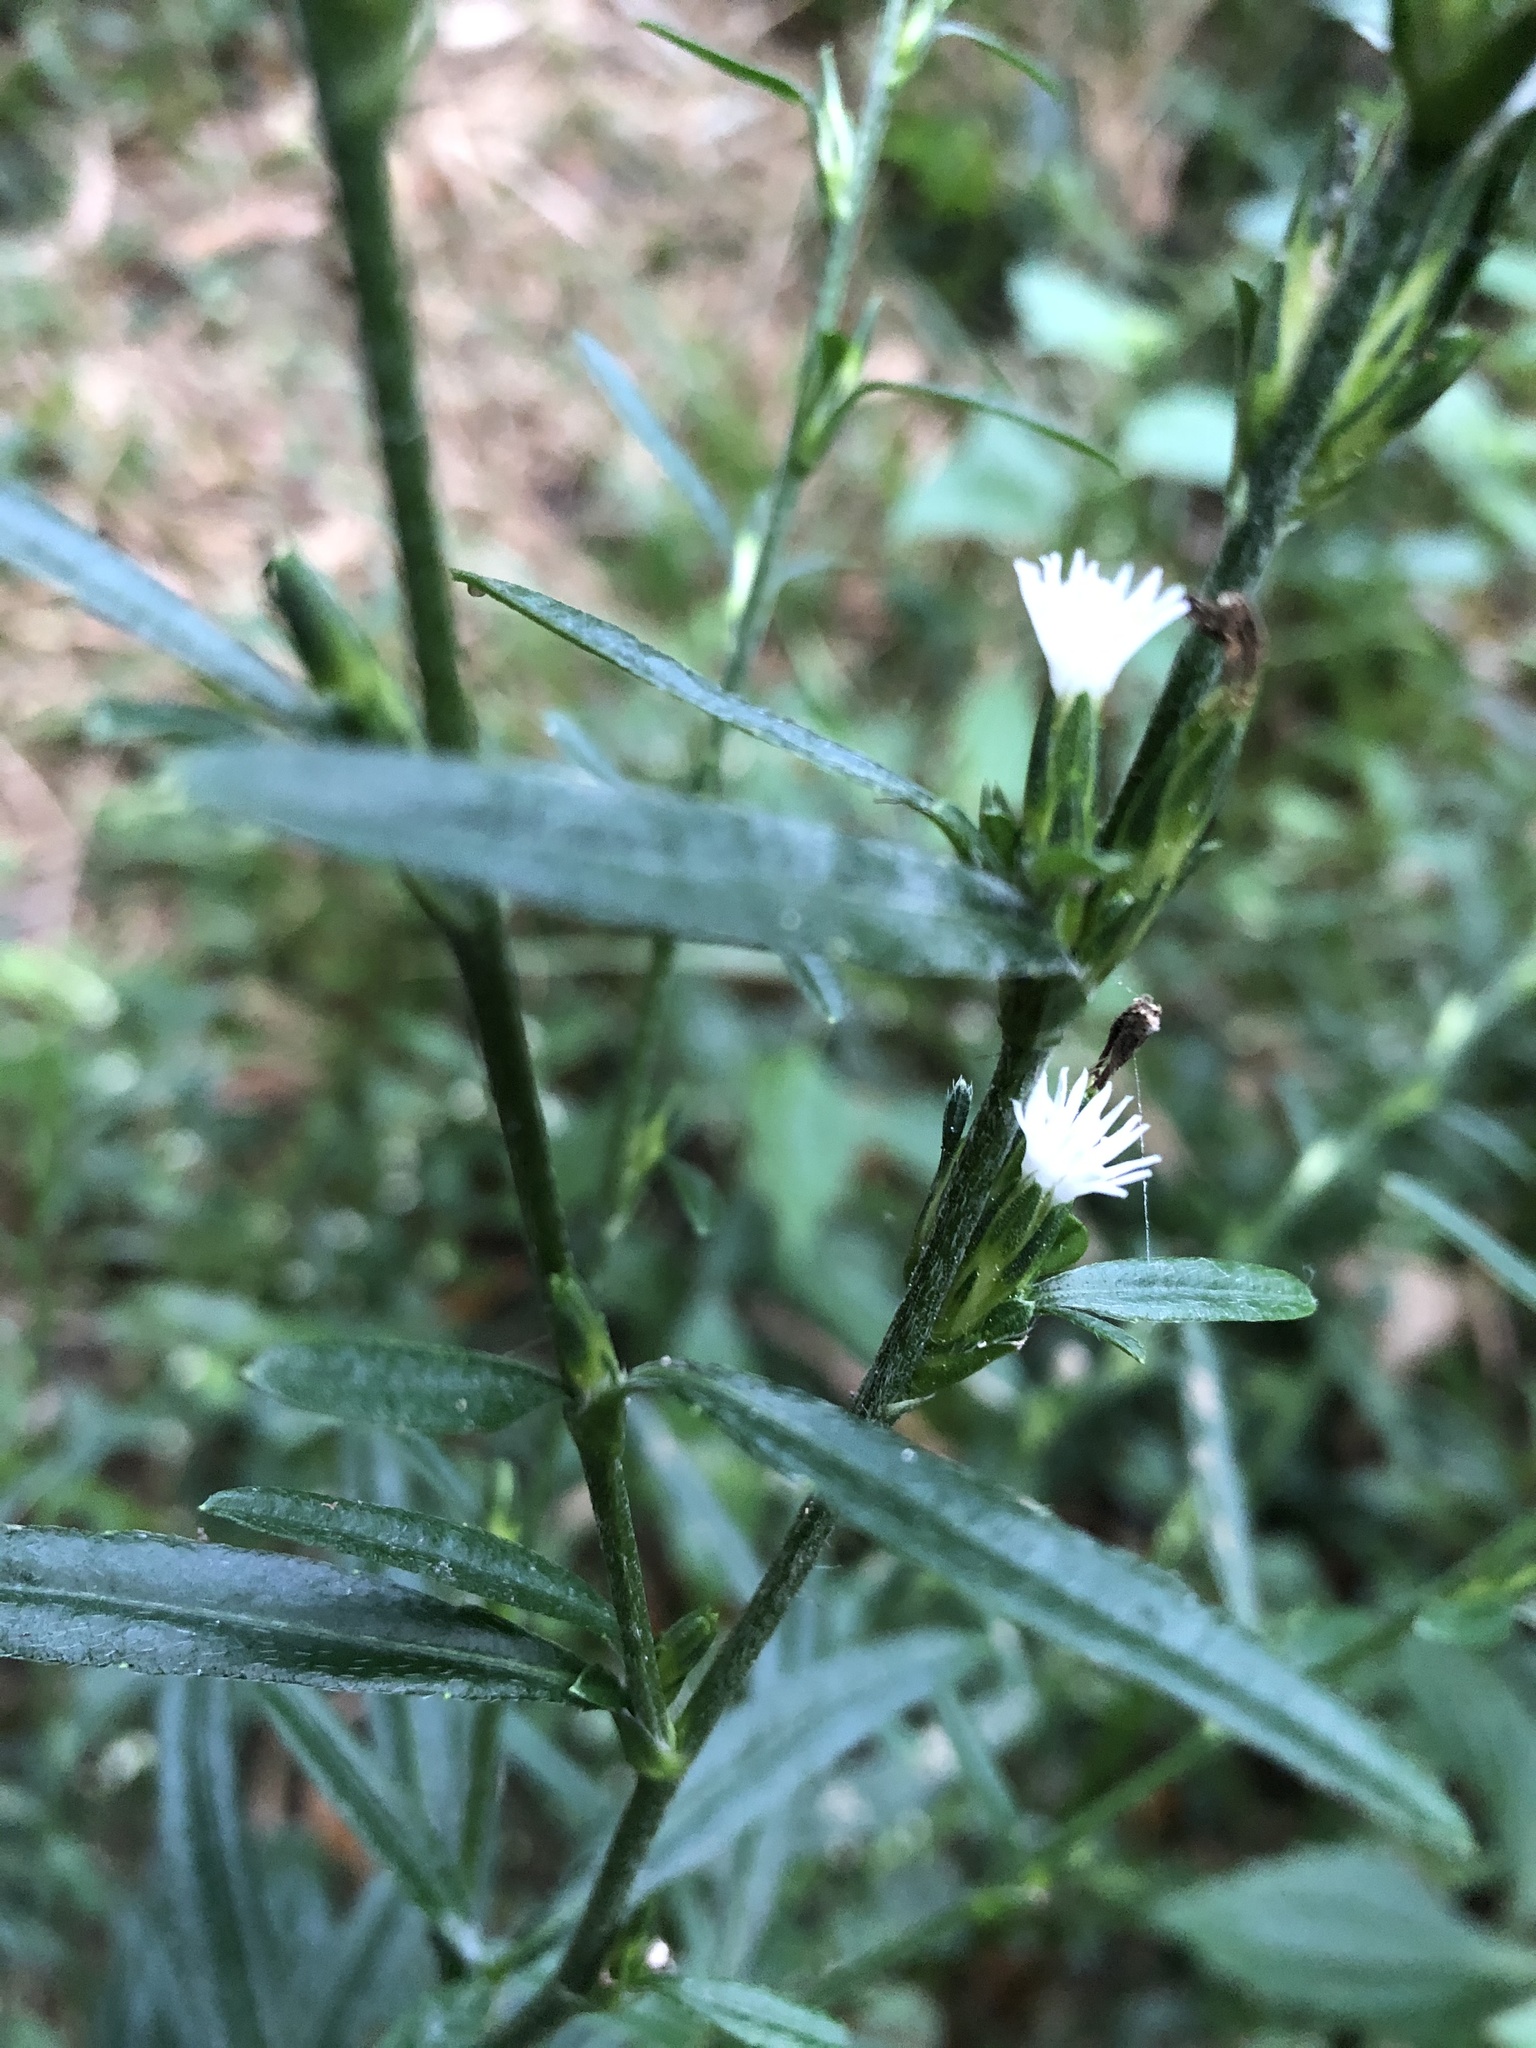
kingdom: Plantae
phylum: Tracheophyta
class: Magnoliopsida
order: Asterales
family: Asteraceae
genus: Pseudelephantopus
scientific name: Pseudelephantopus spicatus
